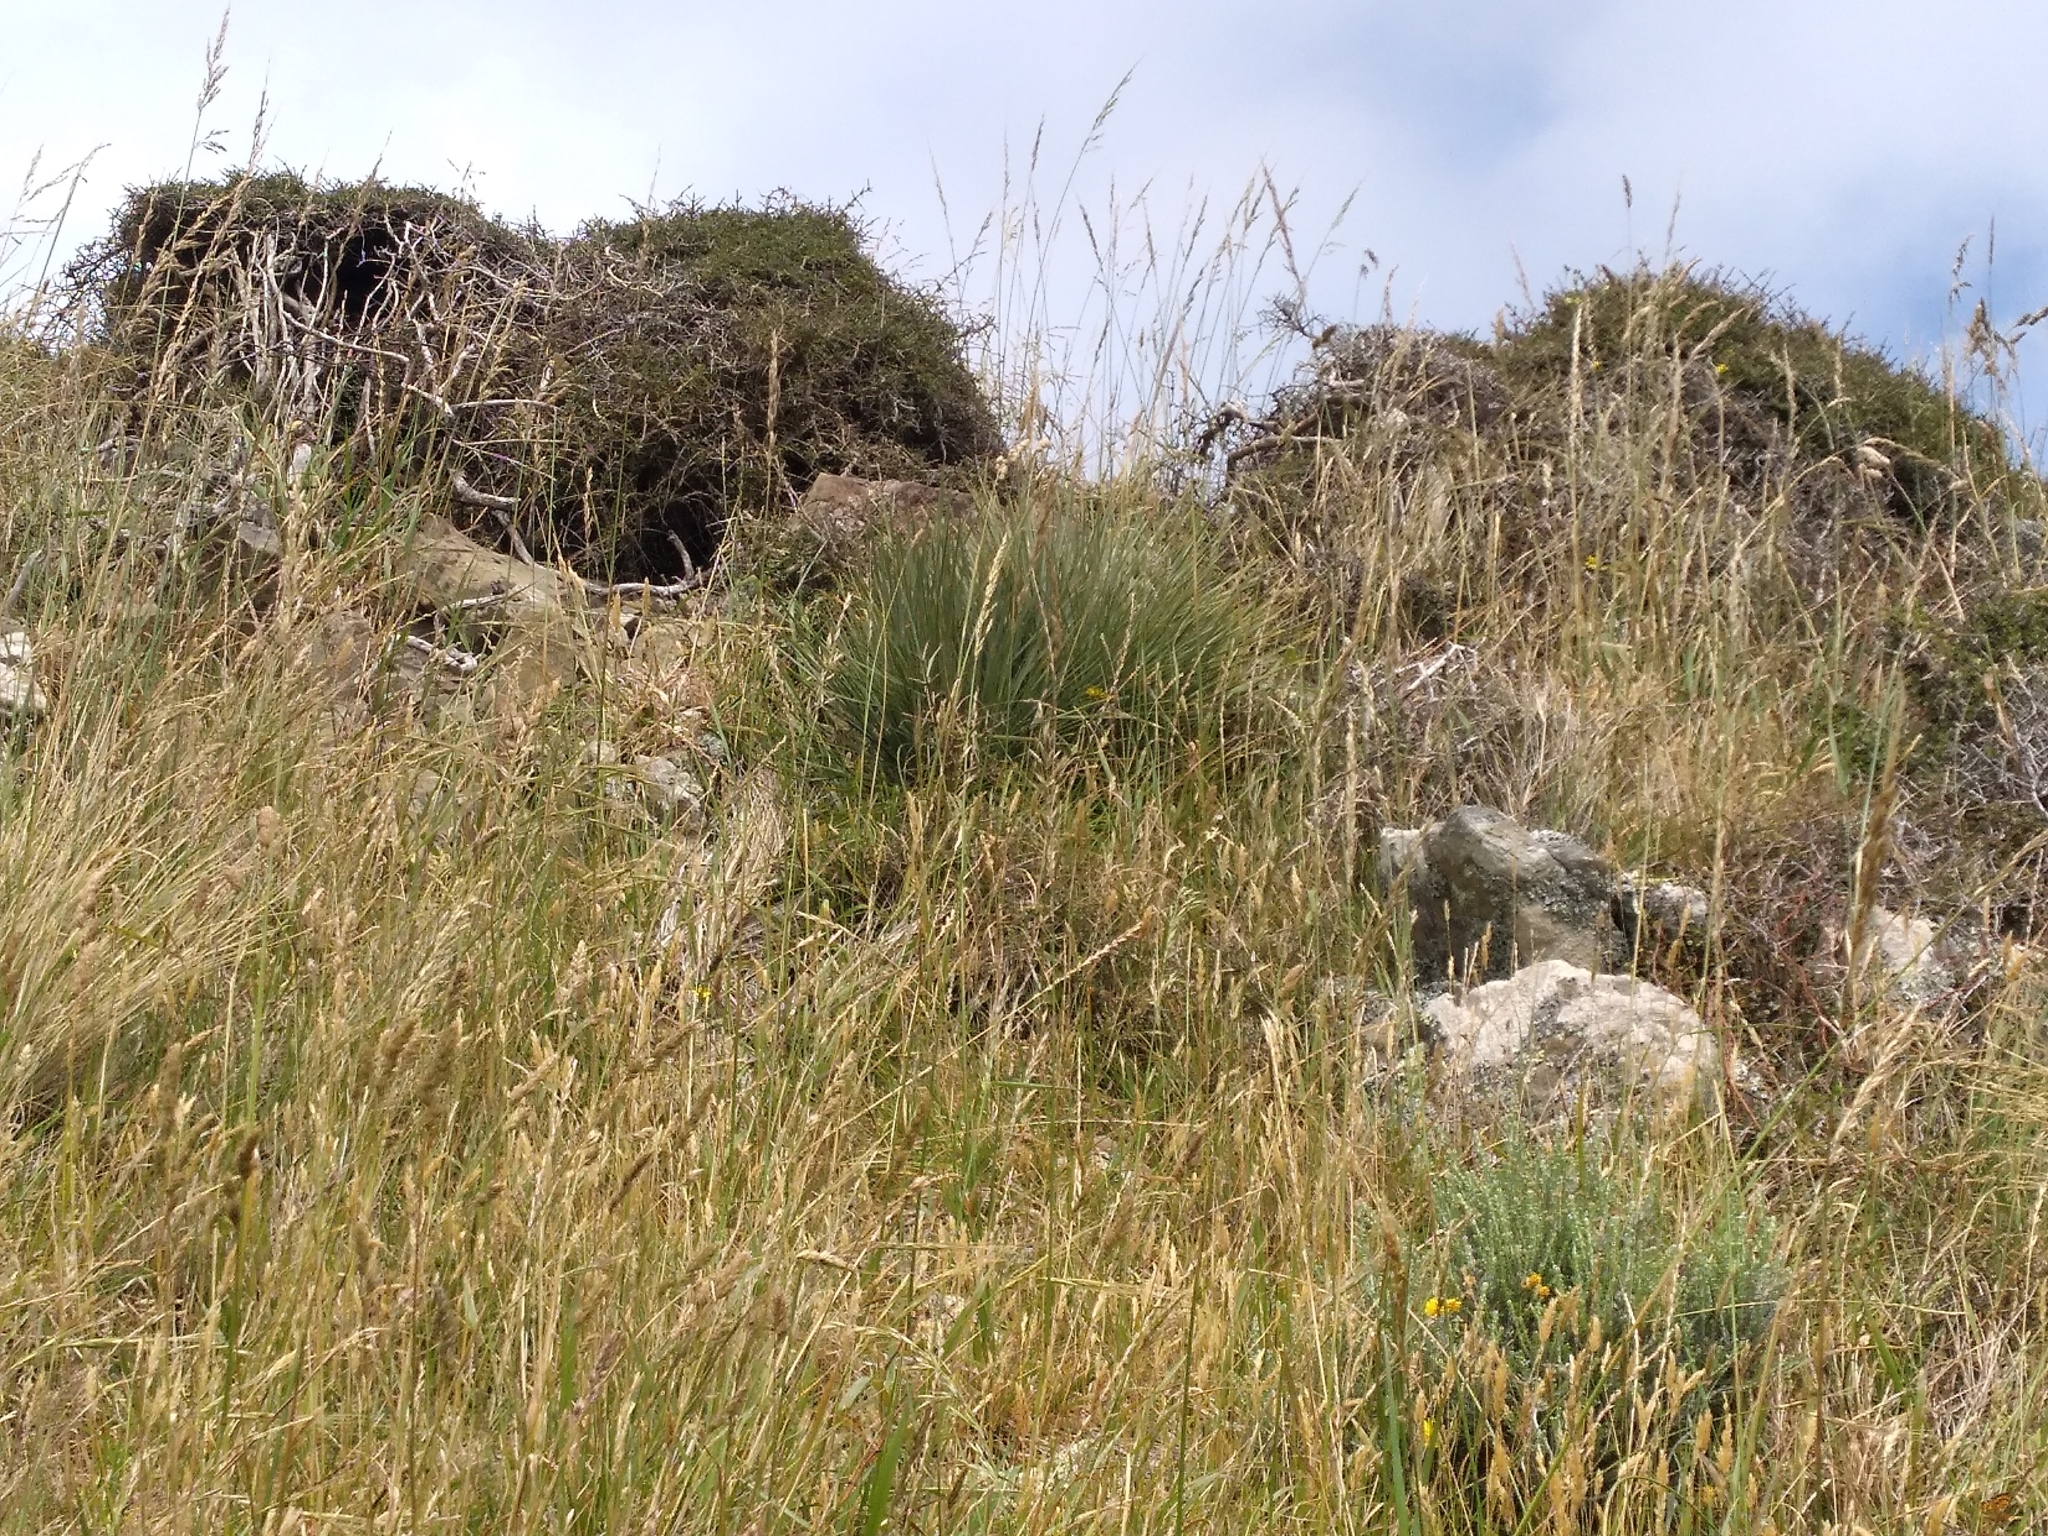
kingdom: Plantae
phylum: Tracheophyta
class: Magnoliopsida
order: Apiales
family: Apiaceae
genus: Aciphylla
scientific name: Aciphylla squarrosa
